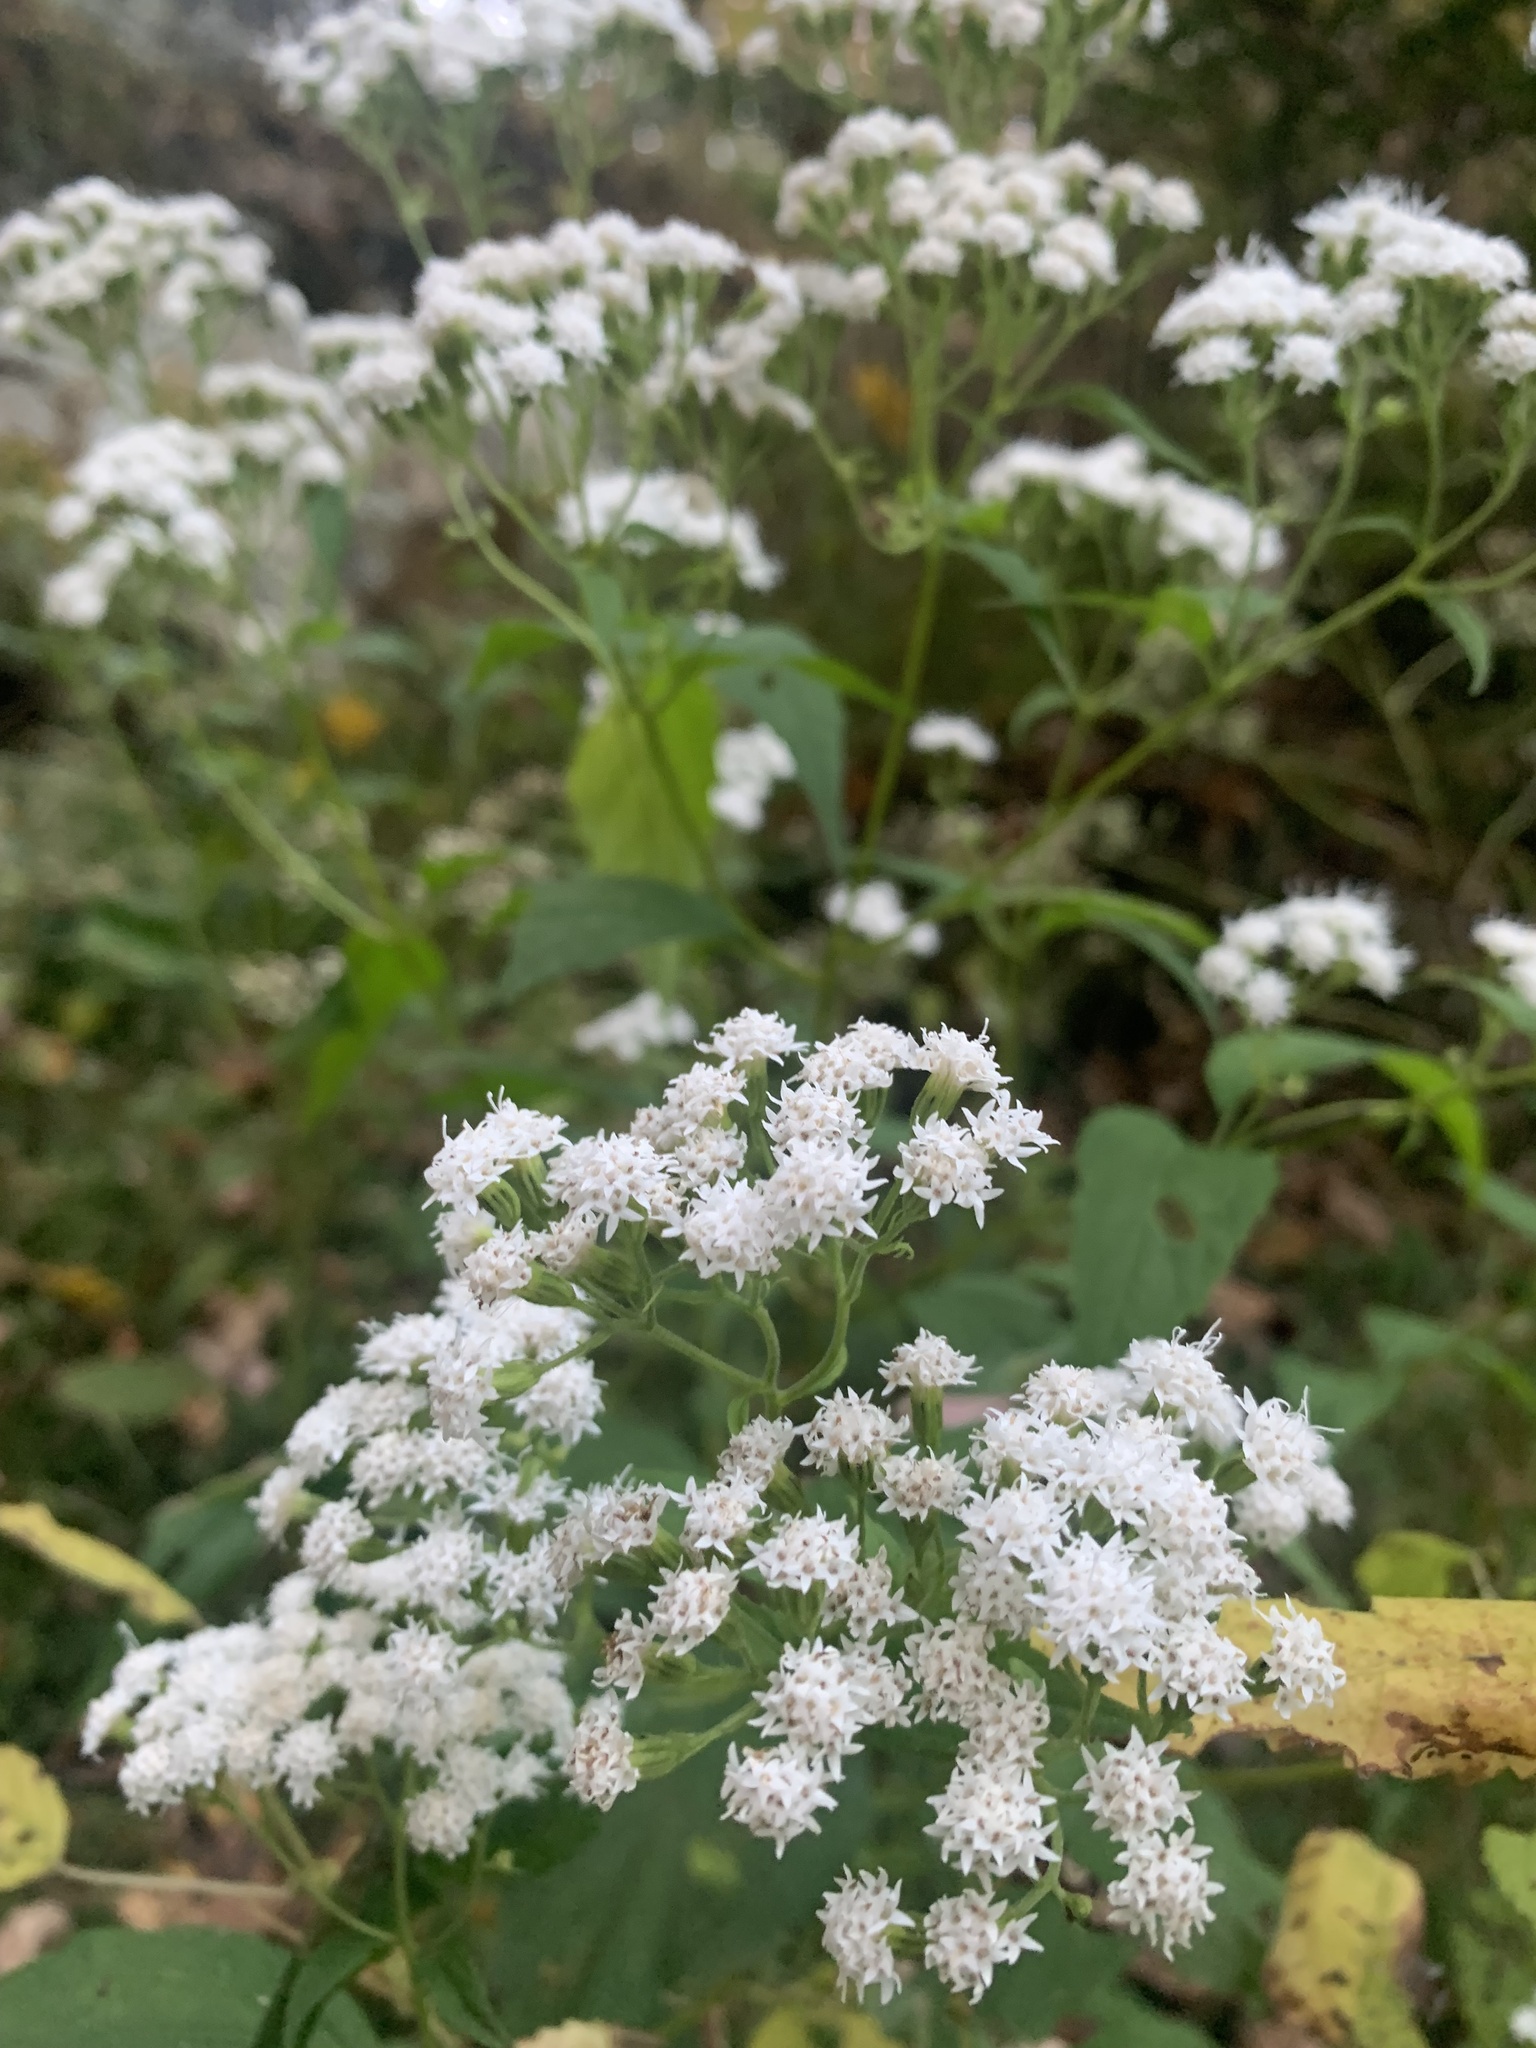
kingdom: Plantae
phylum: Tracheophyta
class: Magnoliopsida
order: Asterales
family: Asteraceae
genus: Ageratina
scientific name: Ageratina altissima
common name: White snakeroot
